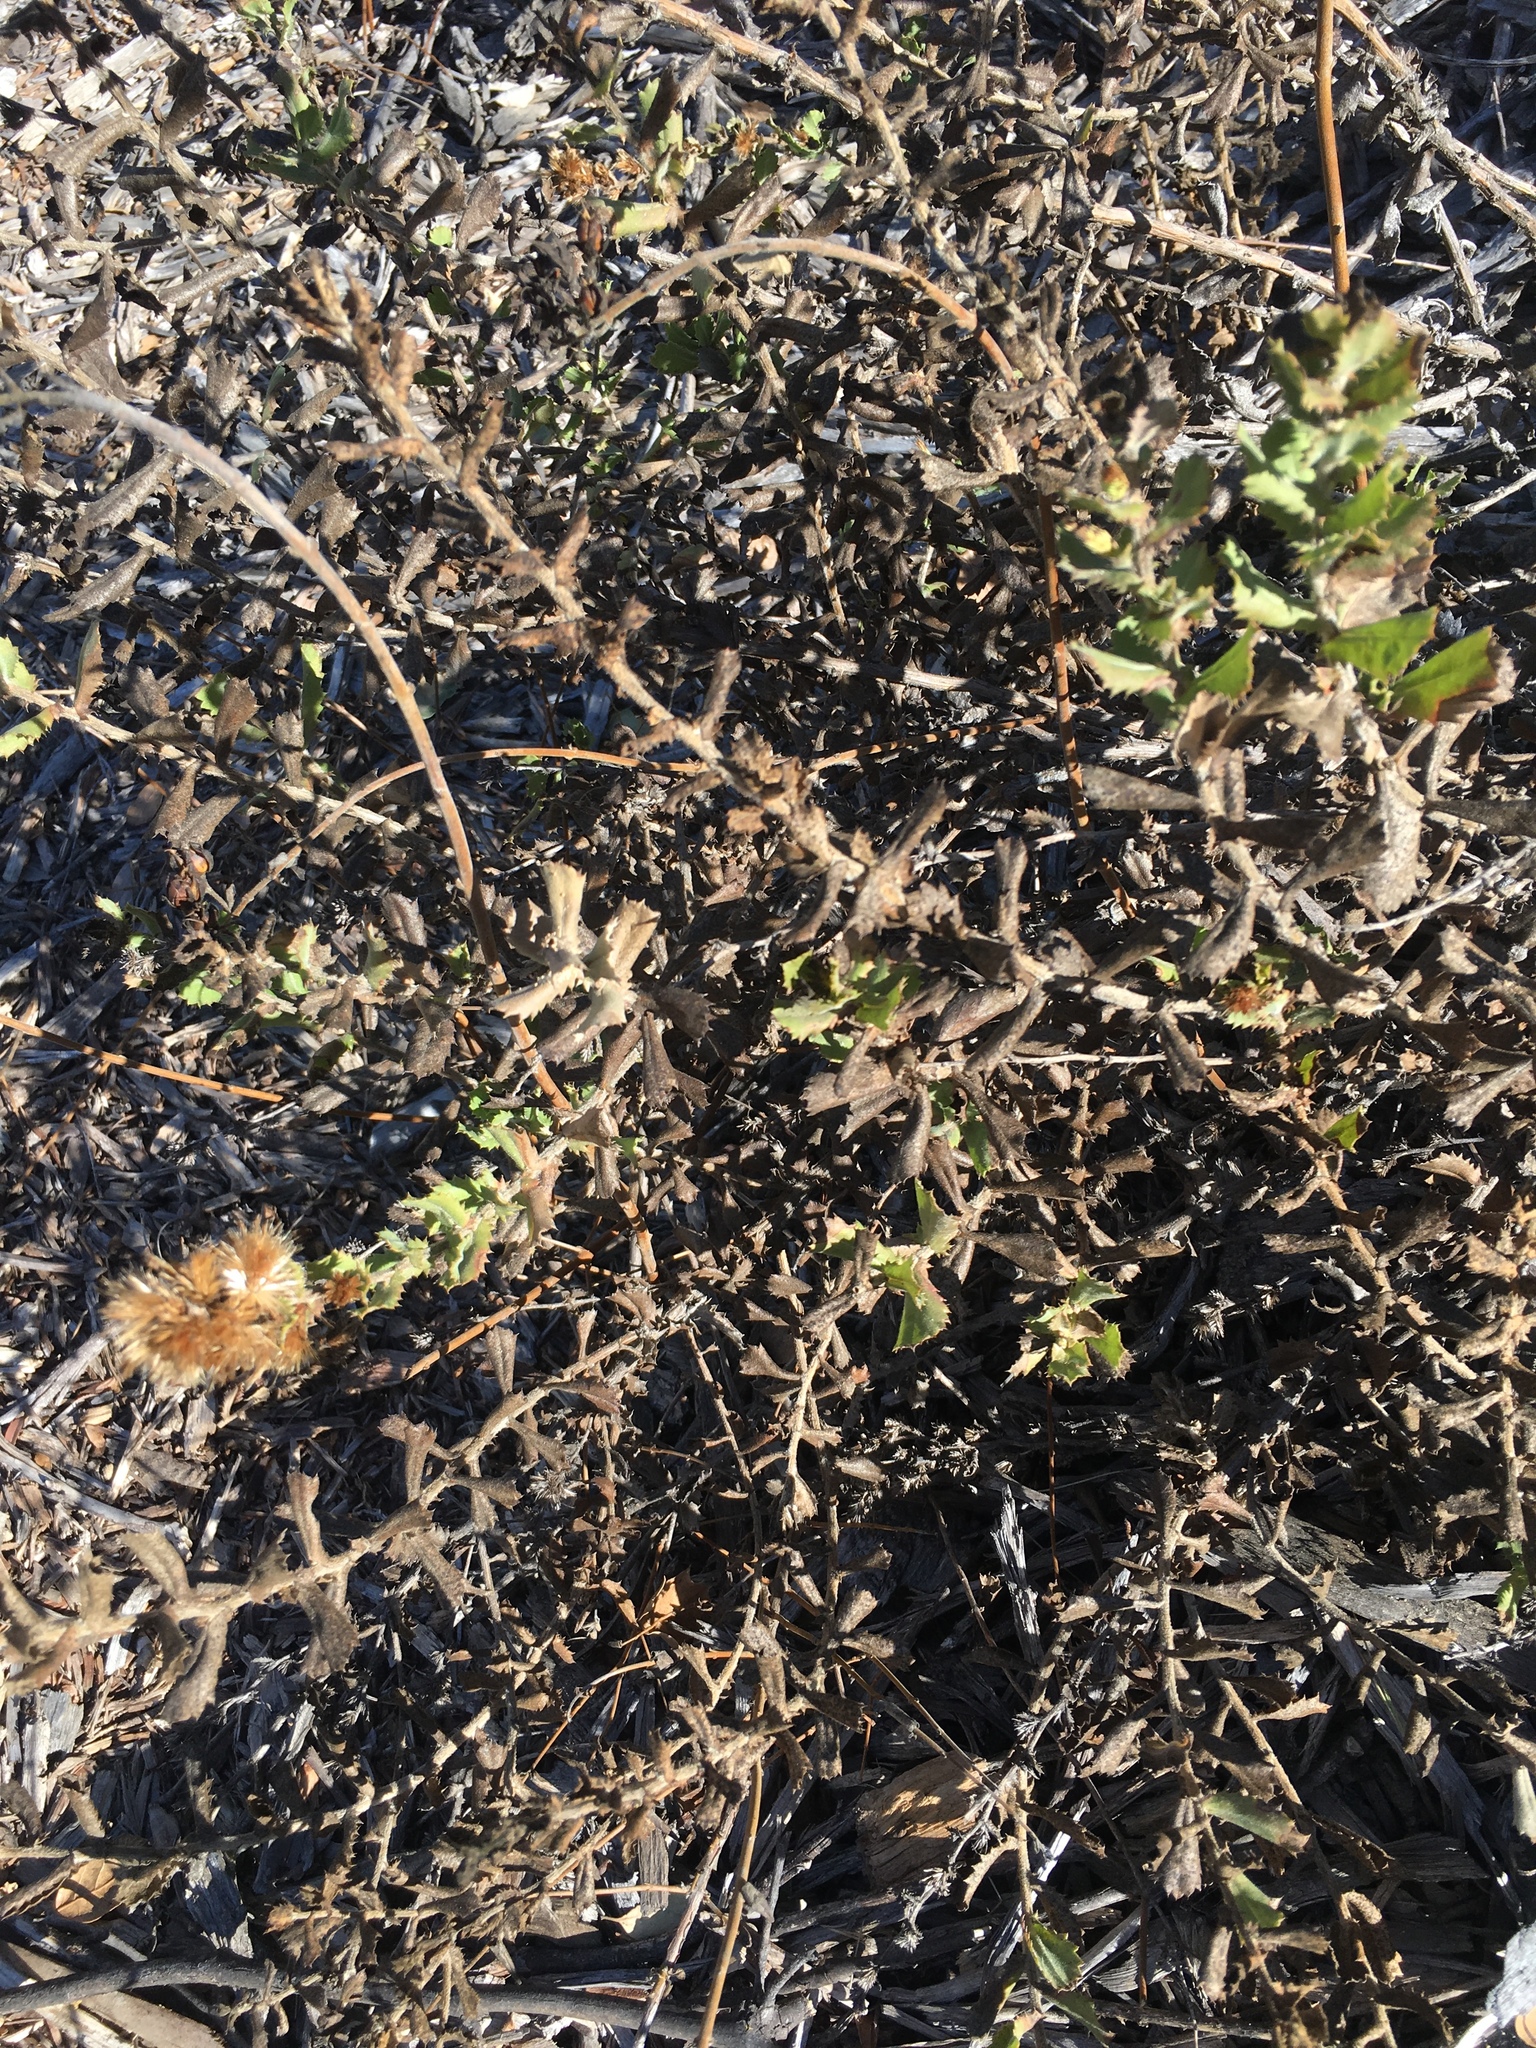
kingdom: Plantae
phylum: Tracheophyta
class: Magnoliopsida
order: Asterales
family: Asteraceae
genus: Hazardia
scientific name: Hazardia squarrosa
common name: Saw-tooth goldenbush
